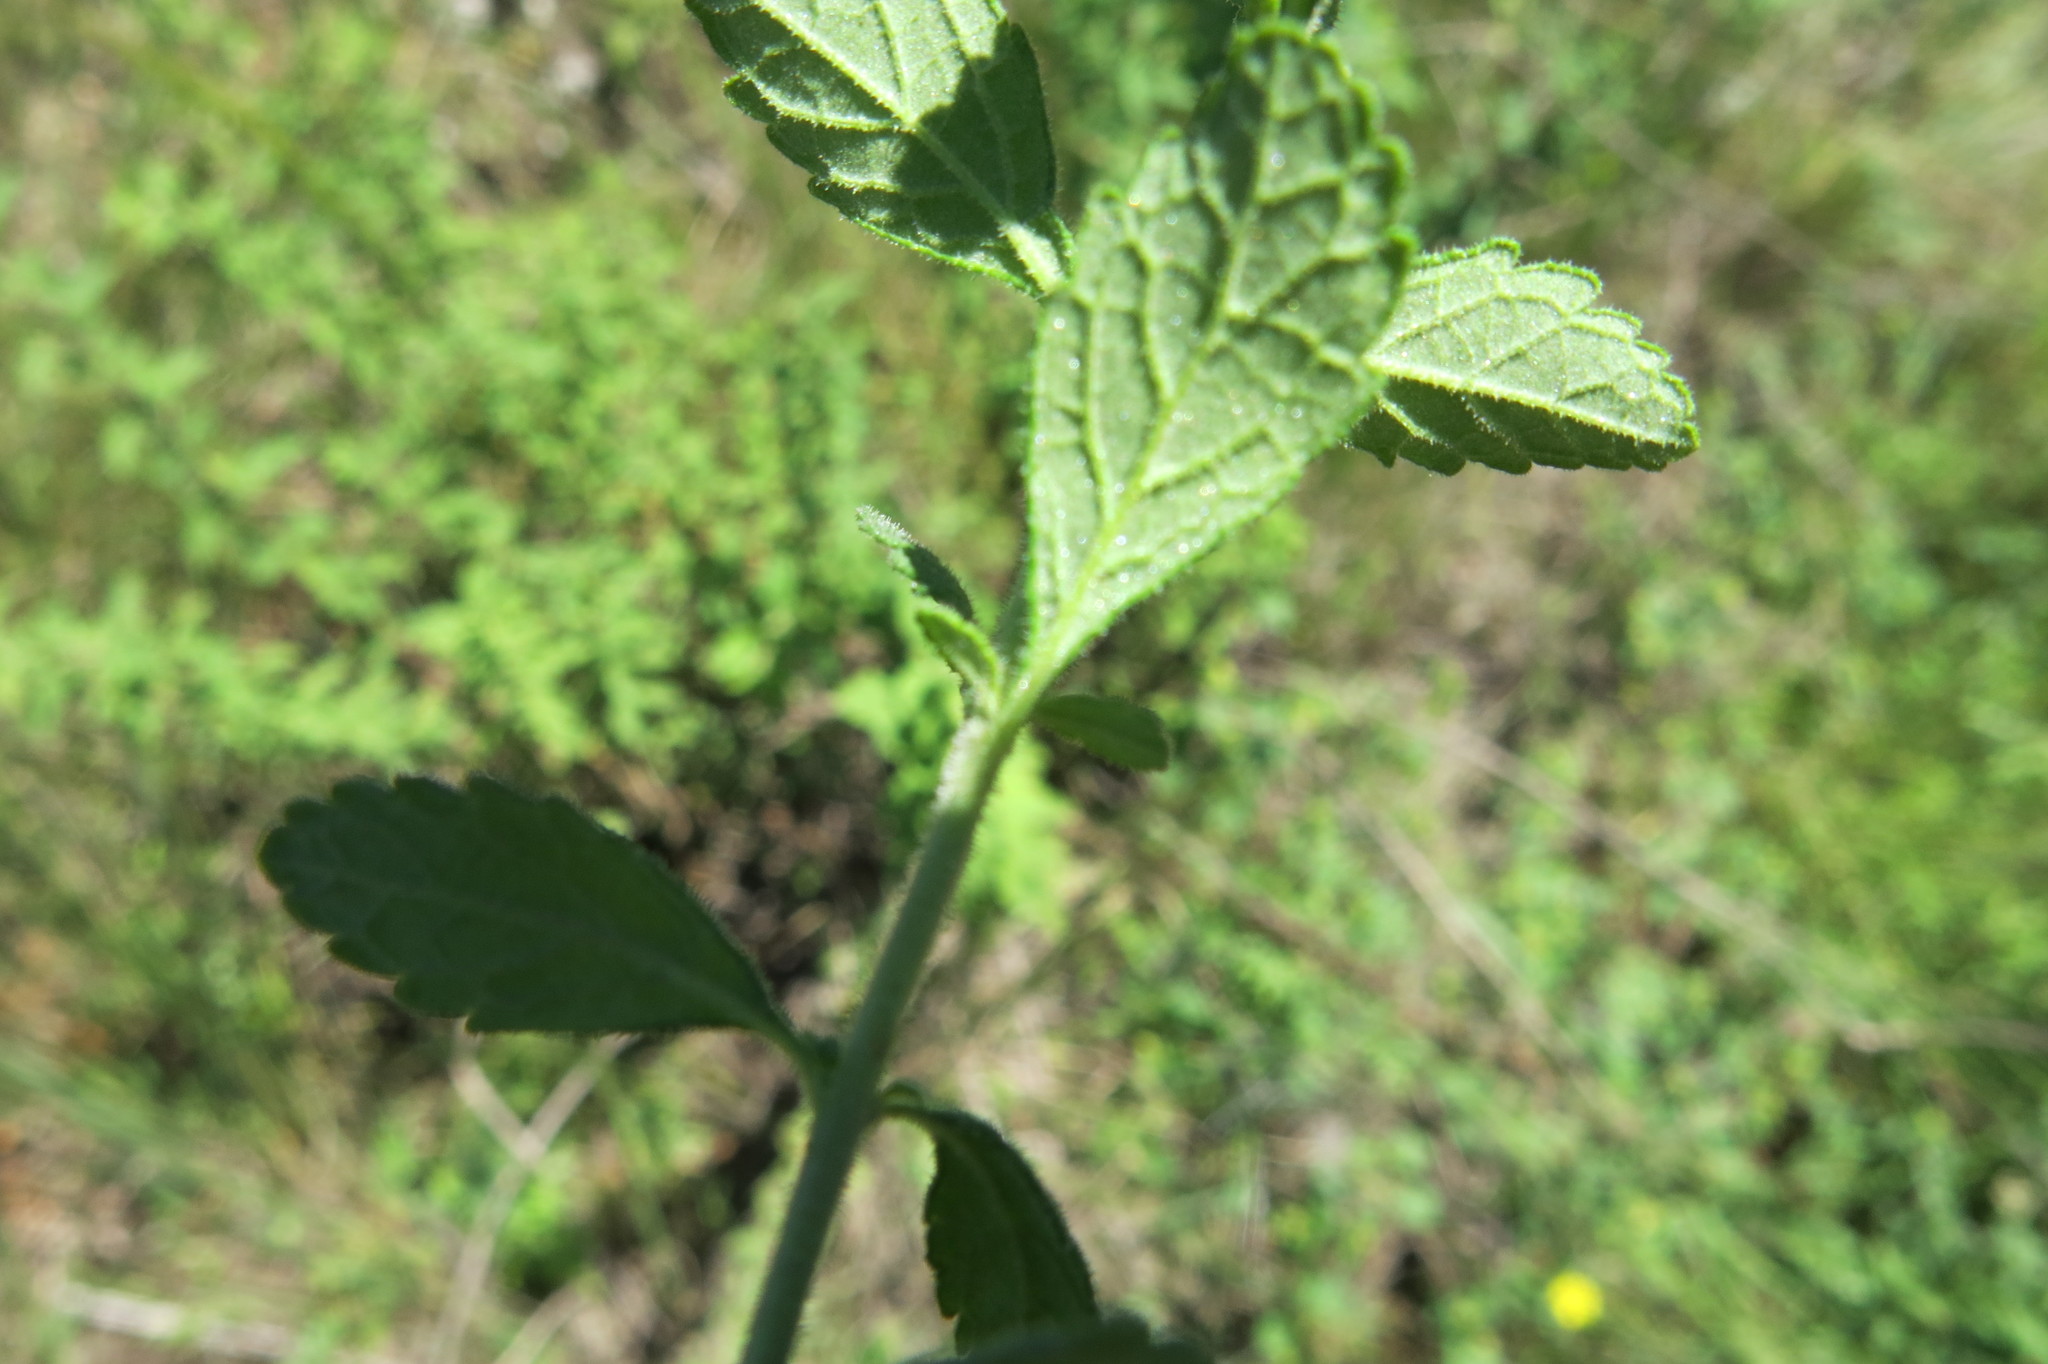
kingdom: Plantae
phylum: Tracheophyta
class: Magnoliopsida
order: Lamiales
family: Scrophulariaceae
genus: Jamesbrittenia
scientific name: Jamesbrittenia grandiflora
